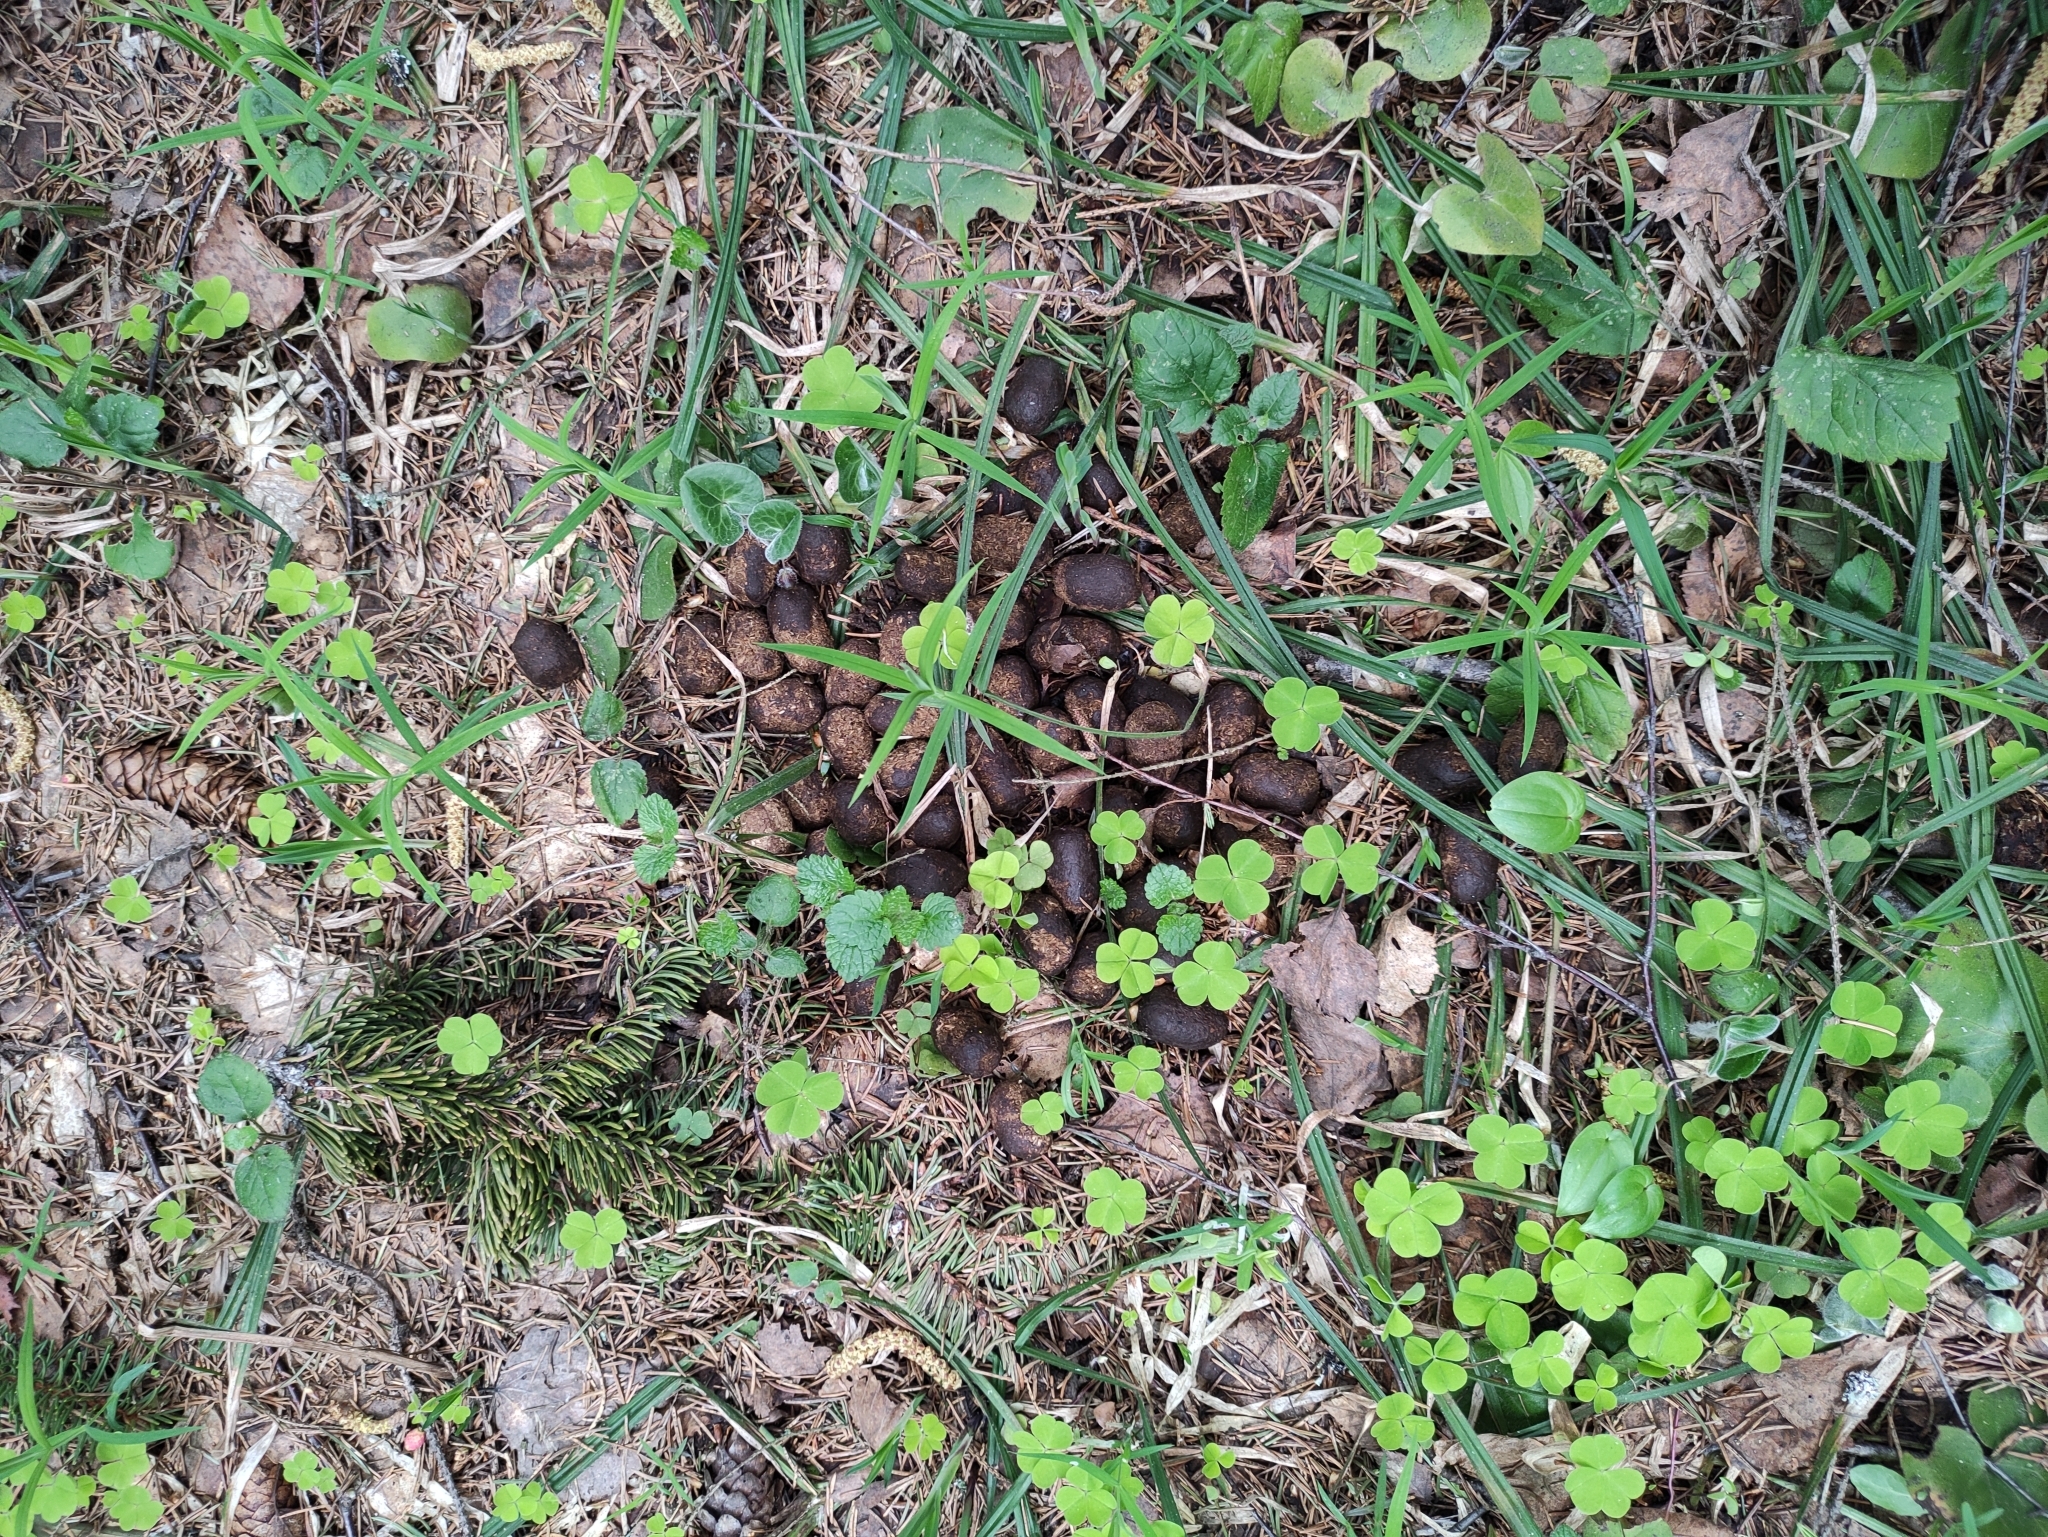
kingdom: Animalia
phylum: Chordata
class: Mammalia
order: Artiodactyla
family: Cervidae
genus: Alces
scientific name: Alces alces
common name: Moose
